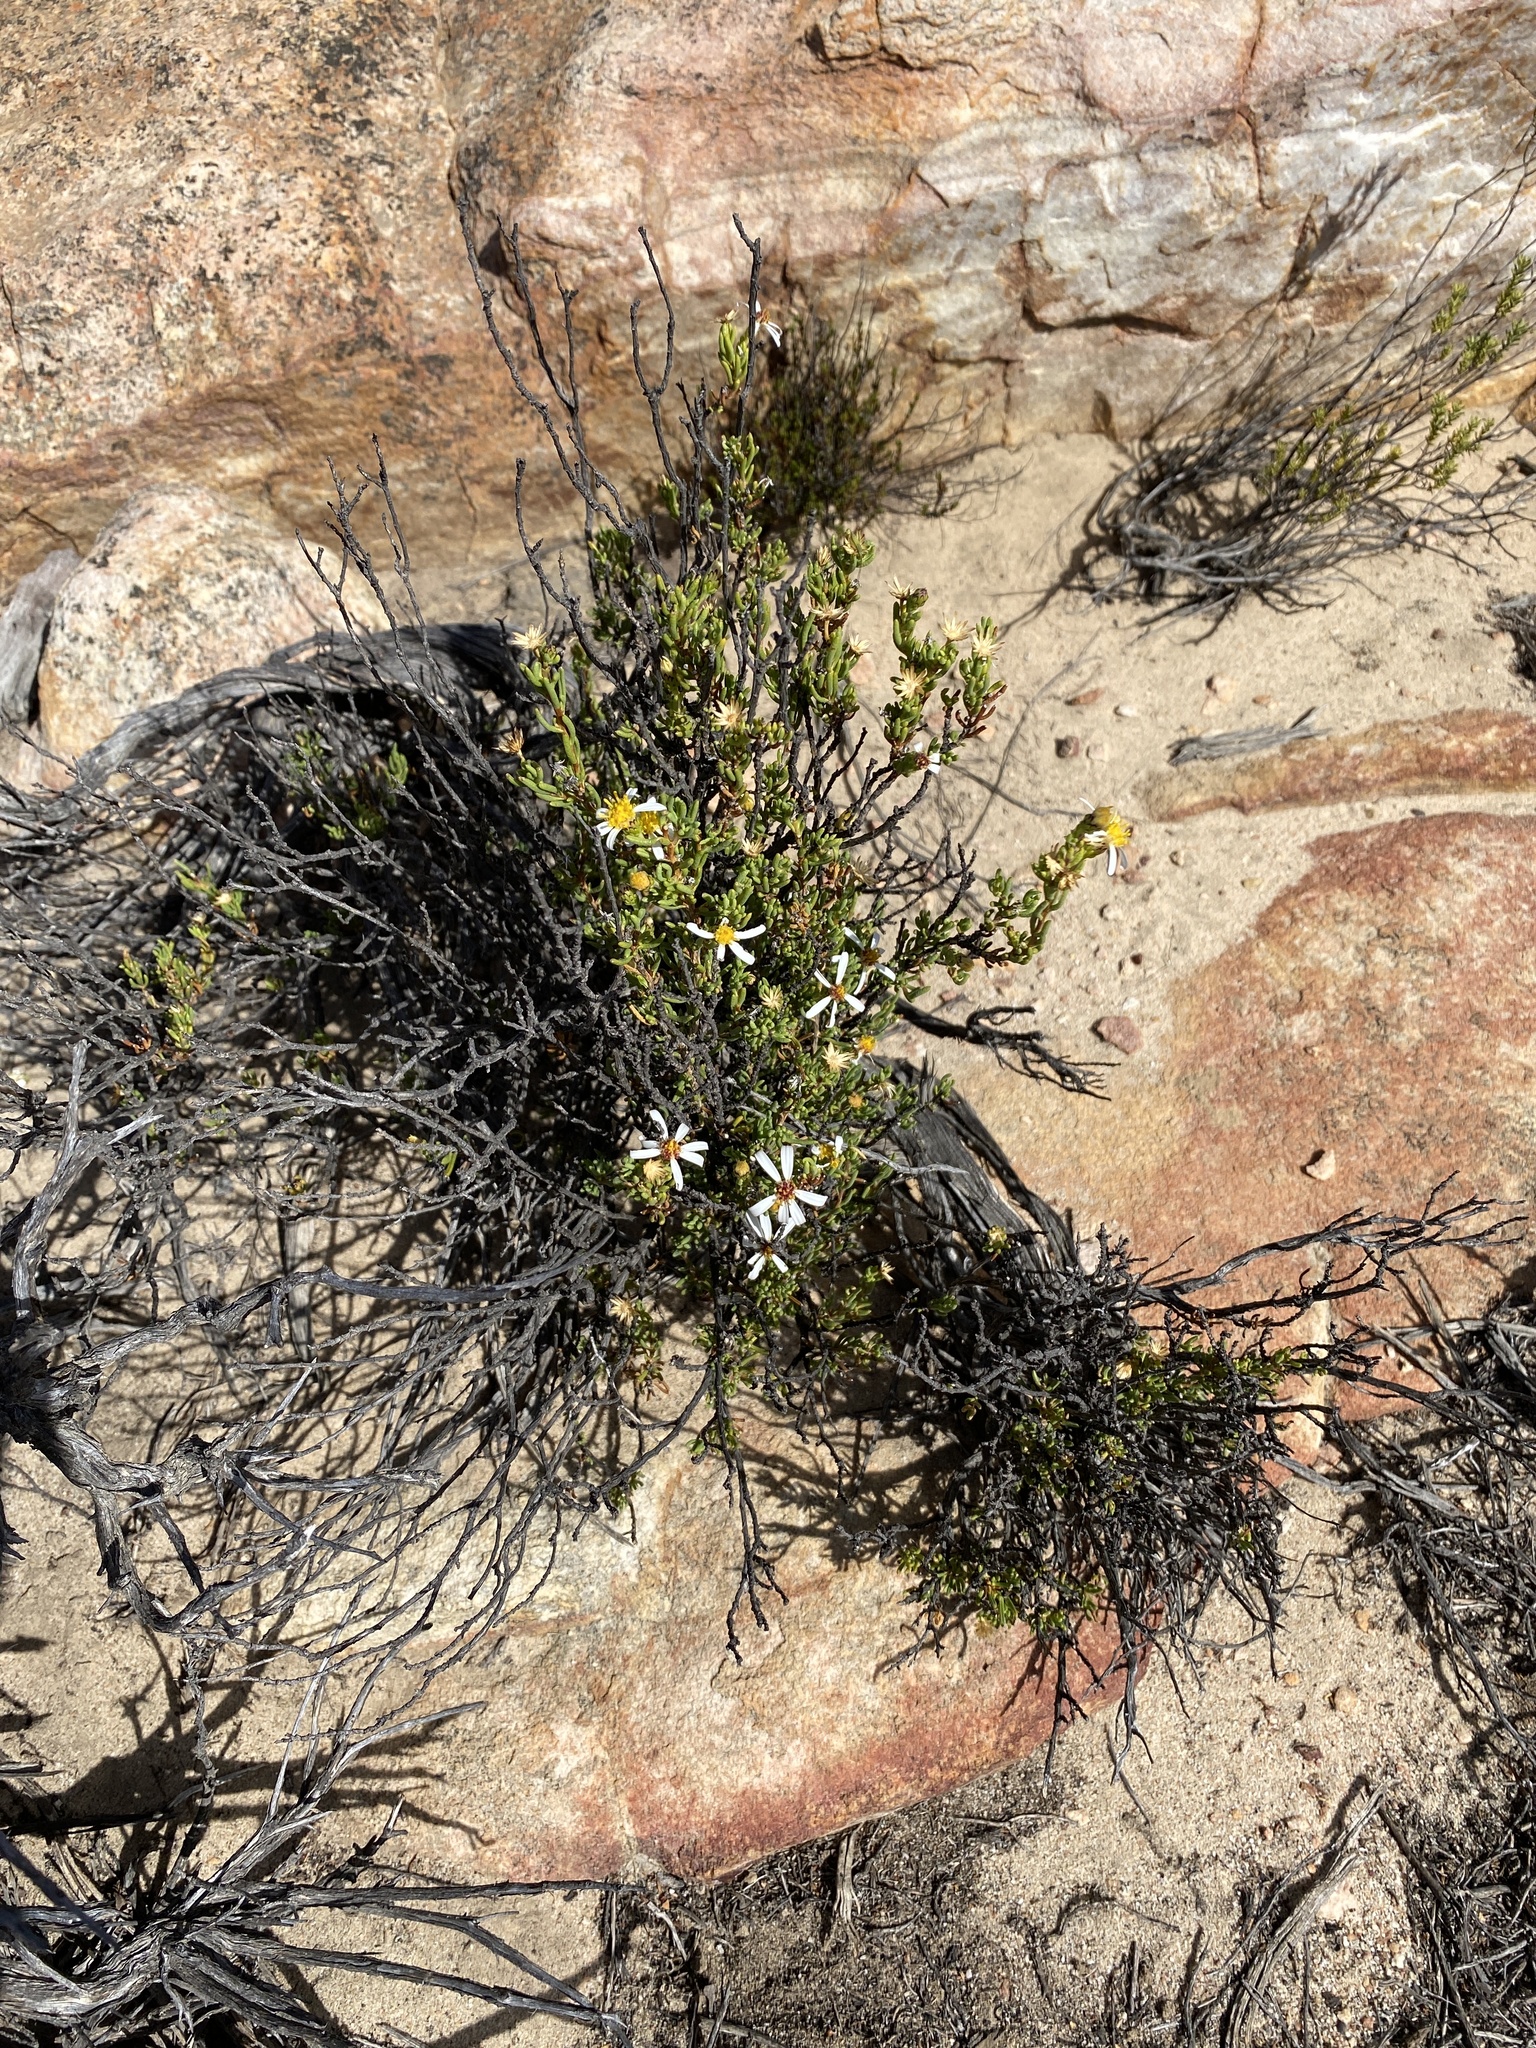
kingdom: Plantae
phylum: Tracheophyta
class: Magnoliopsida
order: Asterales
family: Asteraceae
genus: Felicia
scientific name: Felicia filifolia
